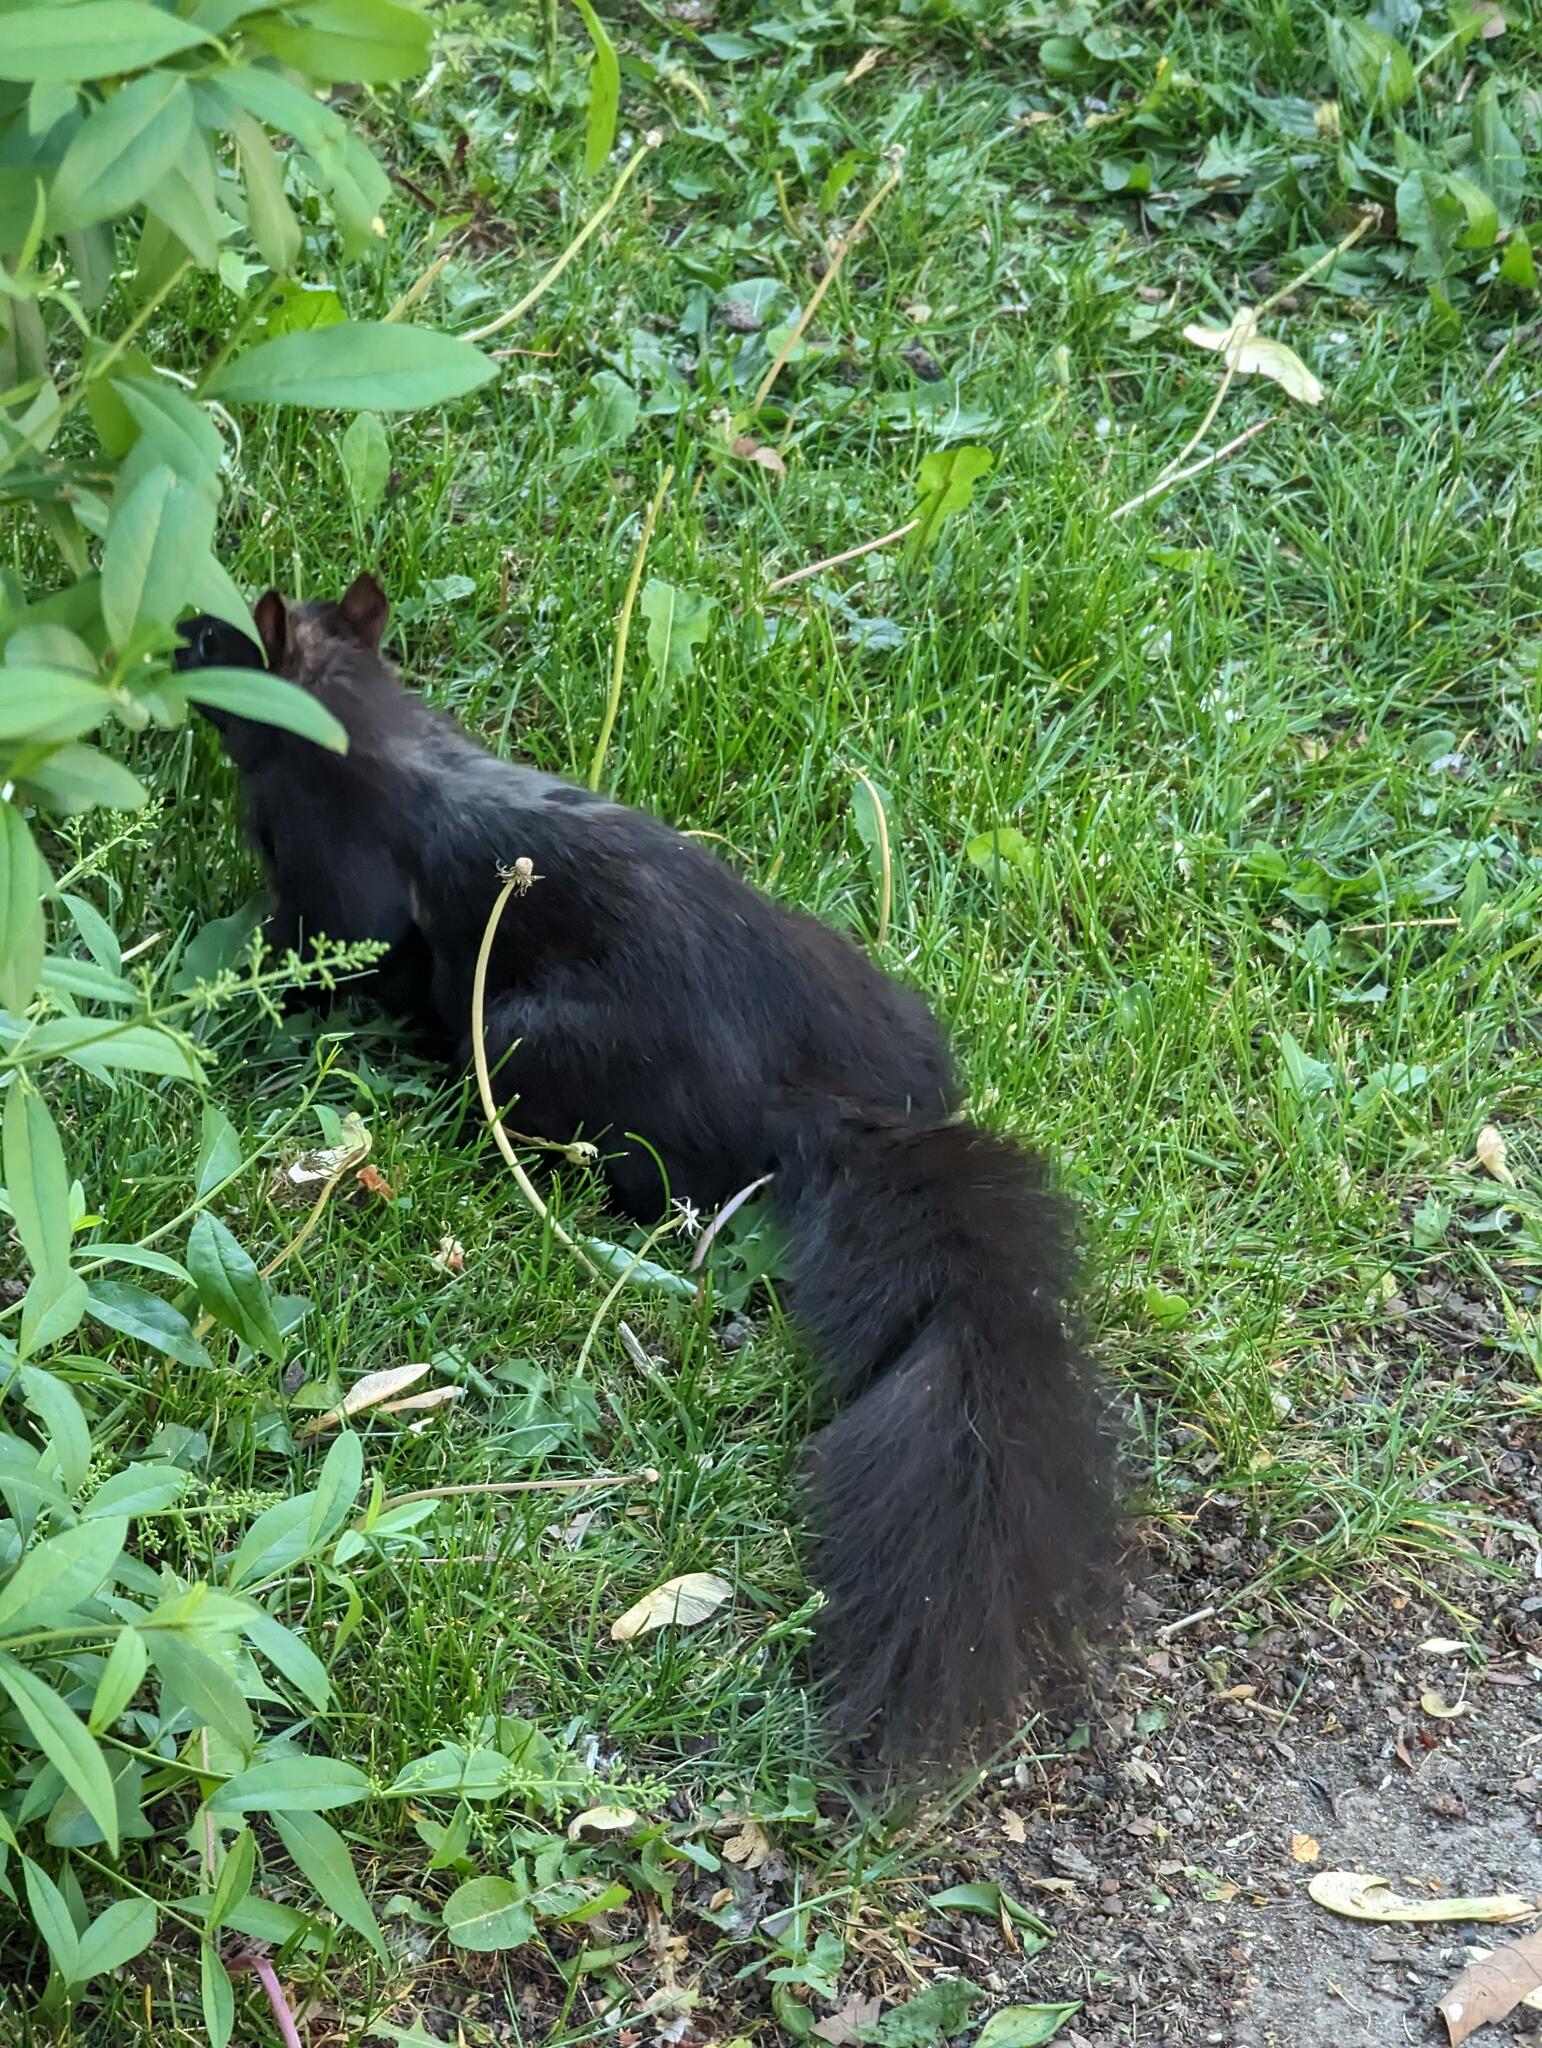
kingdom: Animalia
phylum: Chordata
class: Mammalia
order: Rodentia
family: Sciuridae
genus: Sciurus
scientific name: Sciurus carolinensis
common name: Eastern gray squirrel
